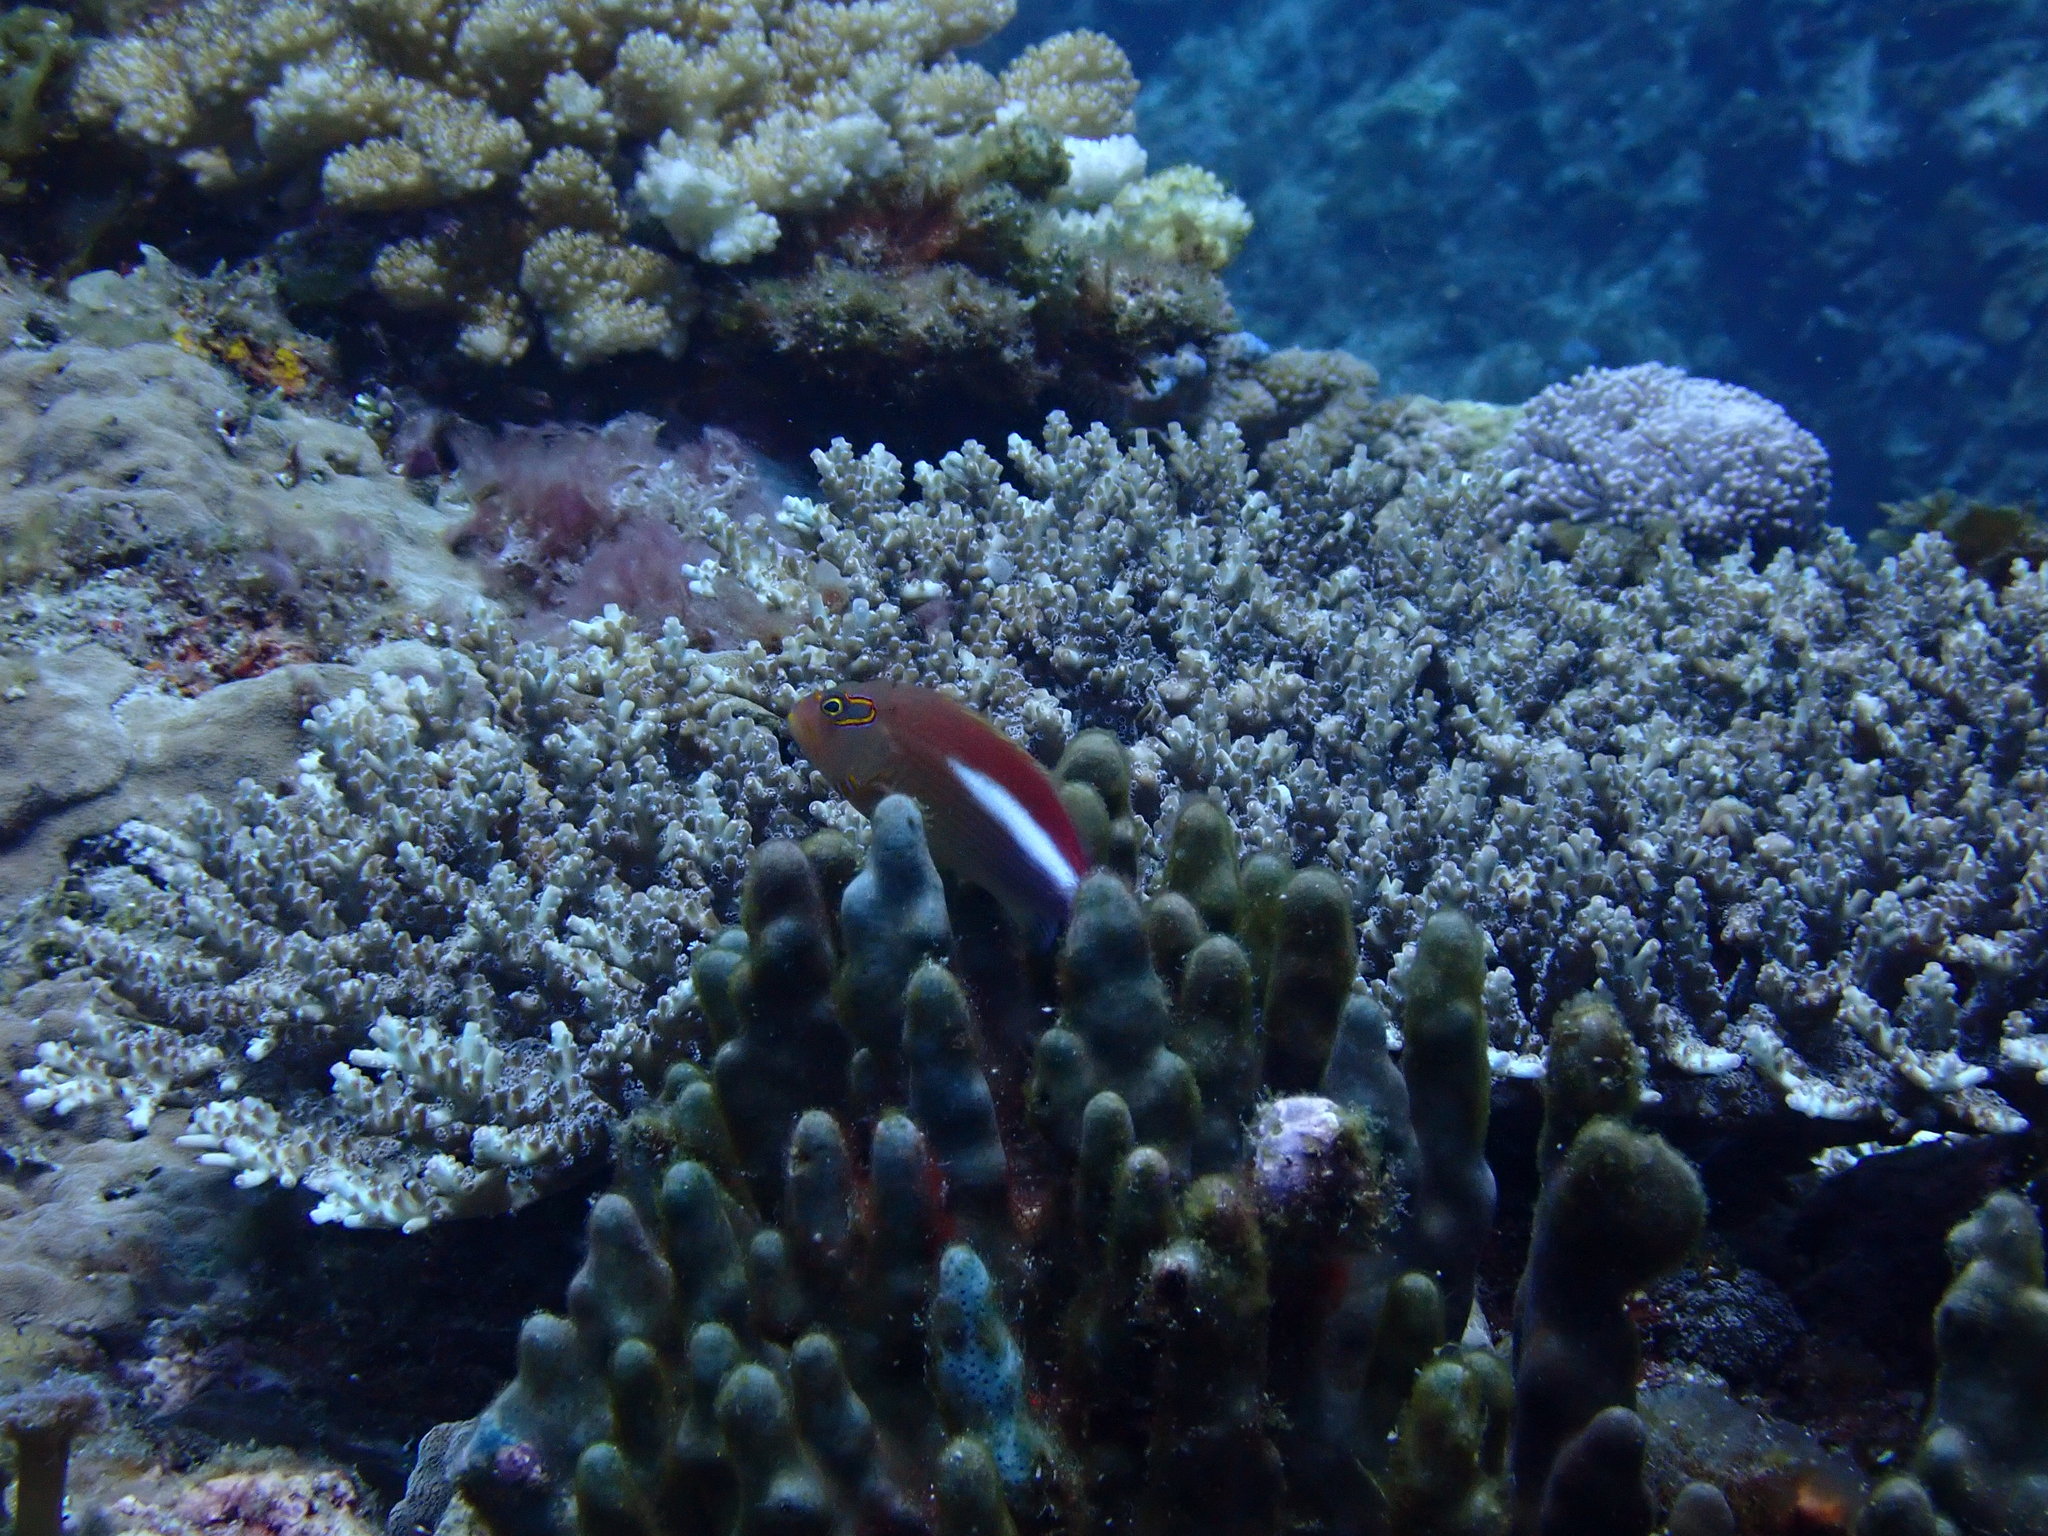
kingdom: Animalia
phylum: Chordata
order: Perciformes
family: Cirrhitidae
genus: Paracirrhites
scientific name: Paracirrhites arcatus
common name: Arc-eye hawkfish
